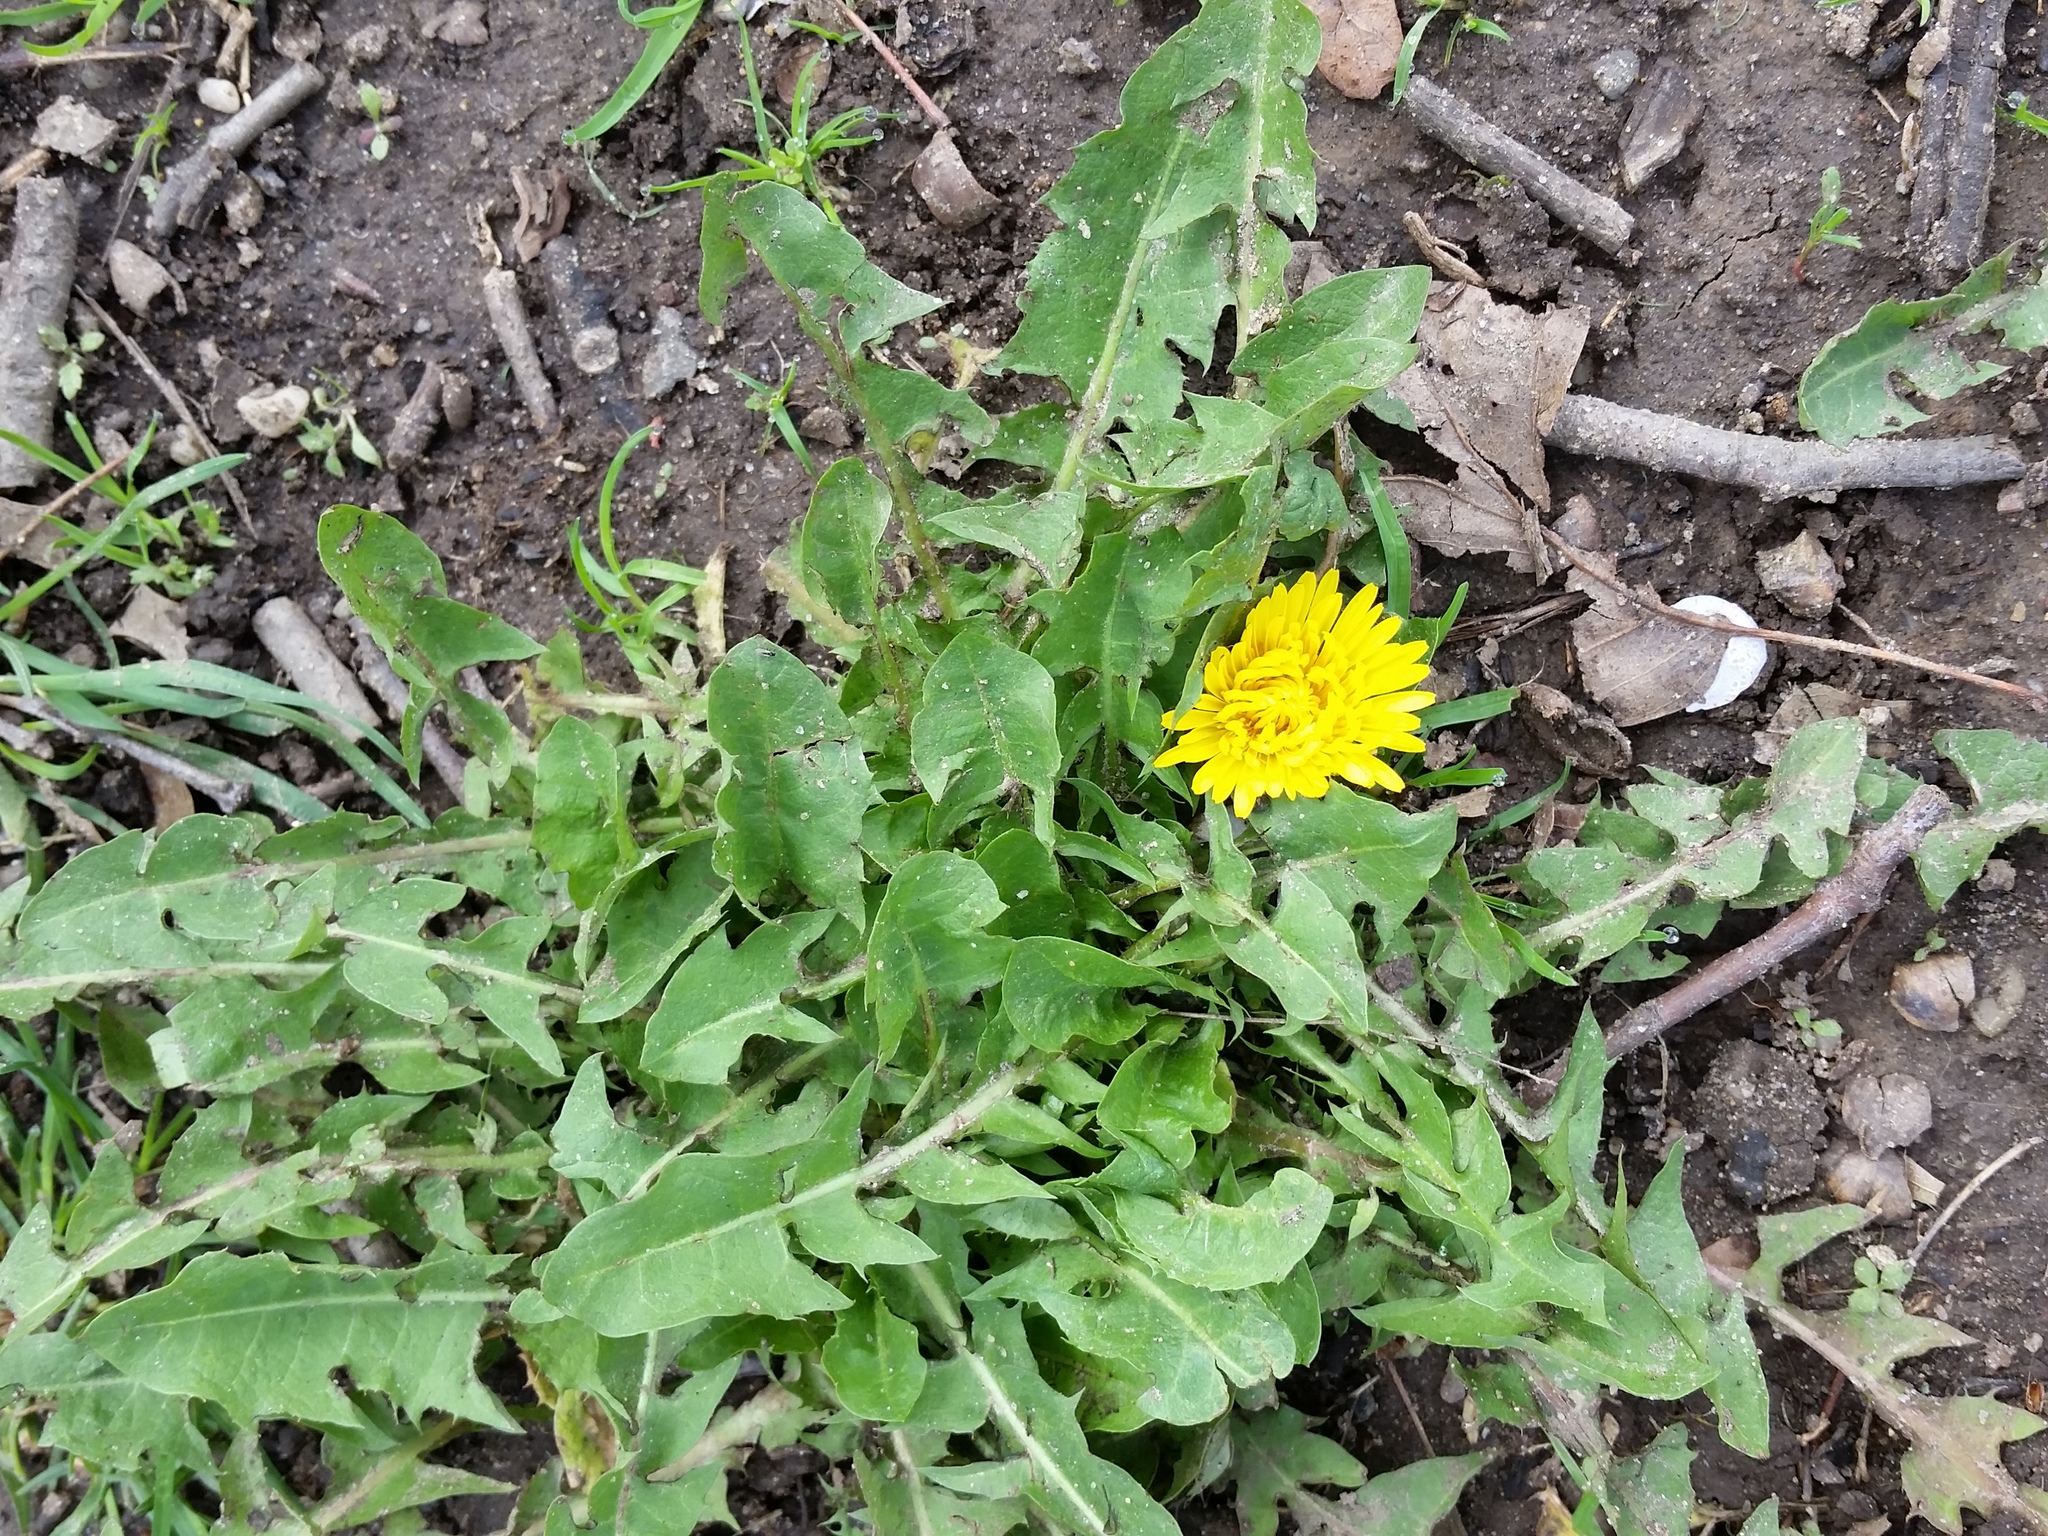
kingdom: Plantae
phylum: Tracheophyta
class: Magnoliopsida
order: Asterales
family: Asteraceae
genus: Taraxacum
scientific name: Taraxacum officinale
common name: Common dandelion
